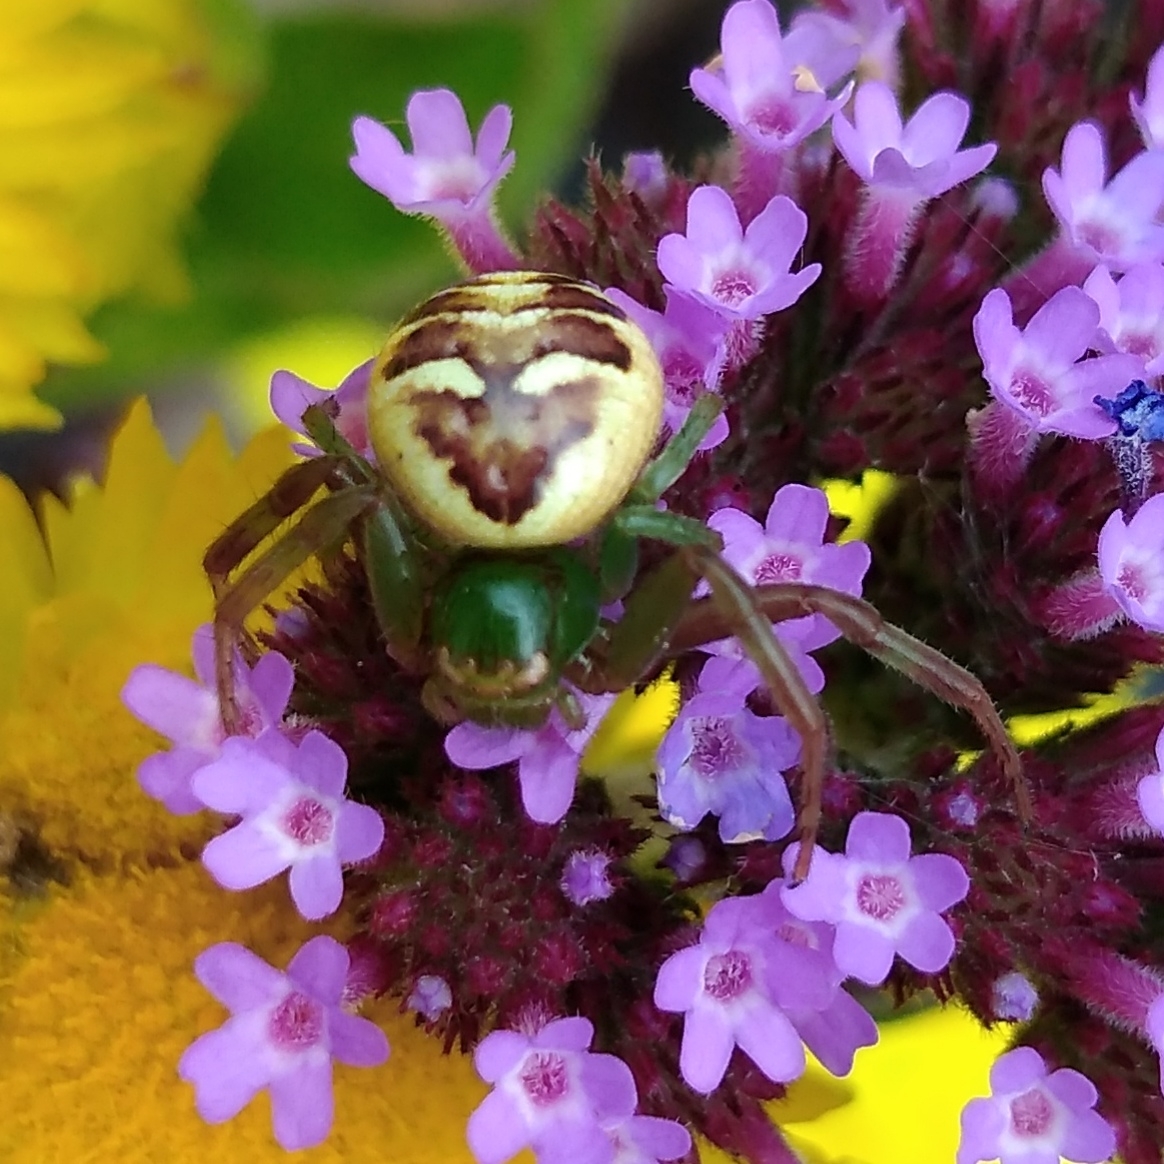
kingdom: Animalia
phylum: Arthropoda
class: Arachnida
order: Araneae
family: Thomisidae
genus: Synema
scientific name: Synema imitatrix
